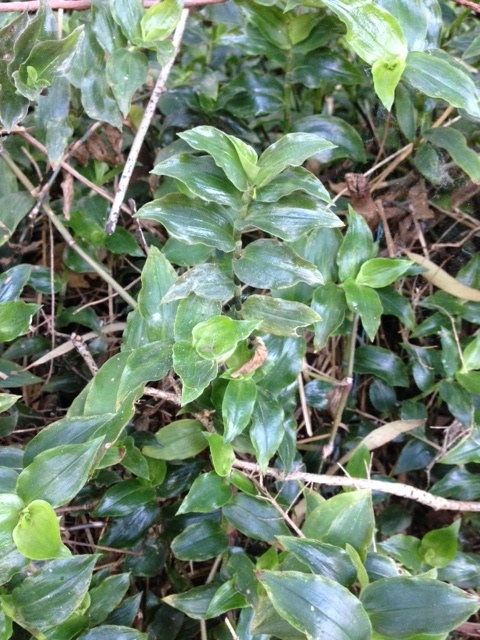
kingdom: Plantae
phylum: Tracheophyta
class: Liliopsida
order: Commelinales
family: Commelinaceae
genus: Tradescantia
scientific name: Tradescantia fluminensis
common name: Wandering-jew
